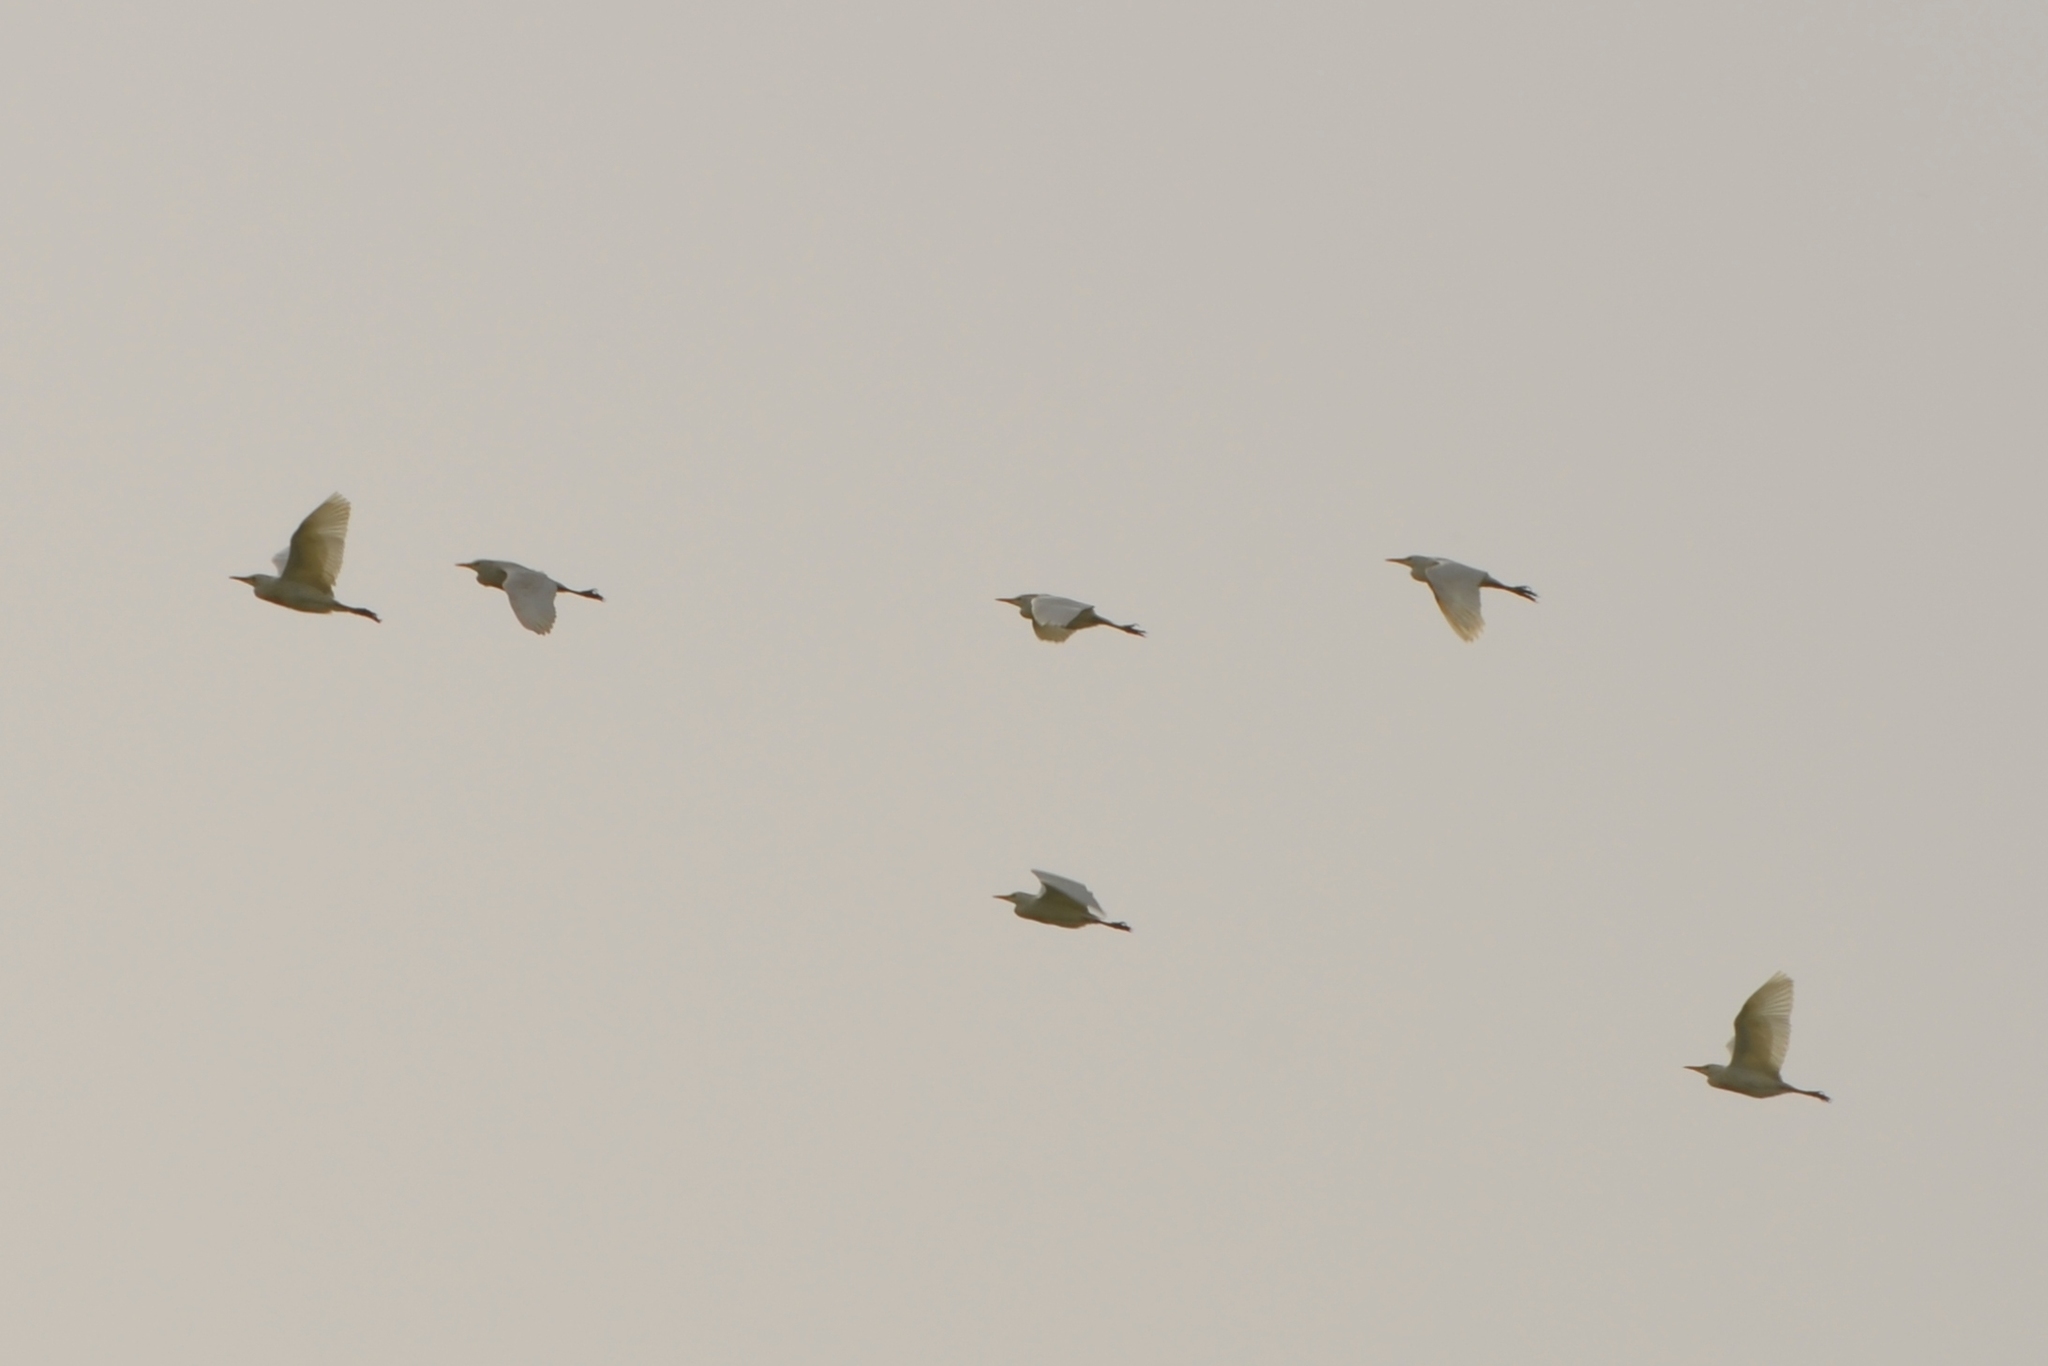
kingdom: Animalia
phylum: Chordata
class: Aves
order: Pelecaniformes
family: Ardeidae
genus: Bubulcus
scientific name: Bubulcus ibis
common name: Cattle egret
